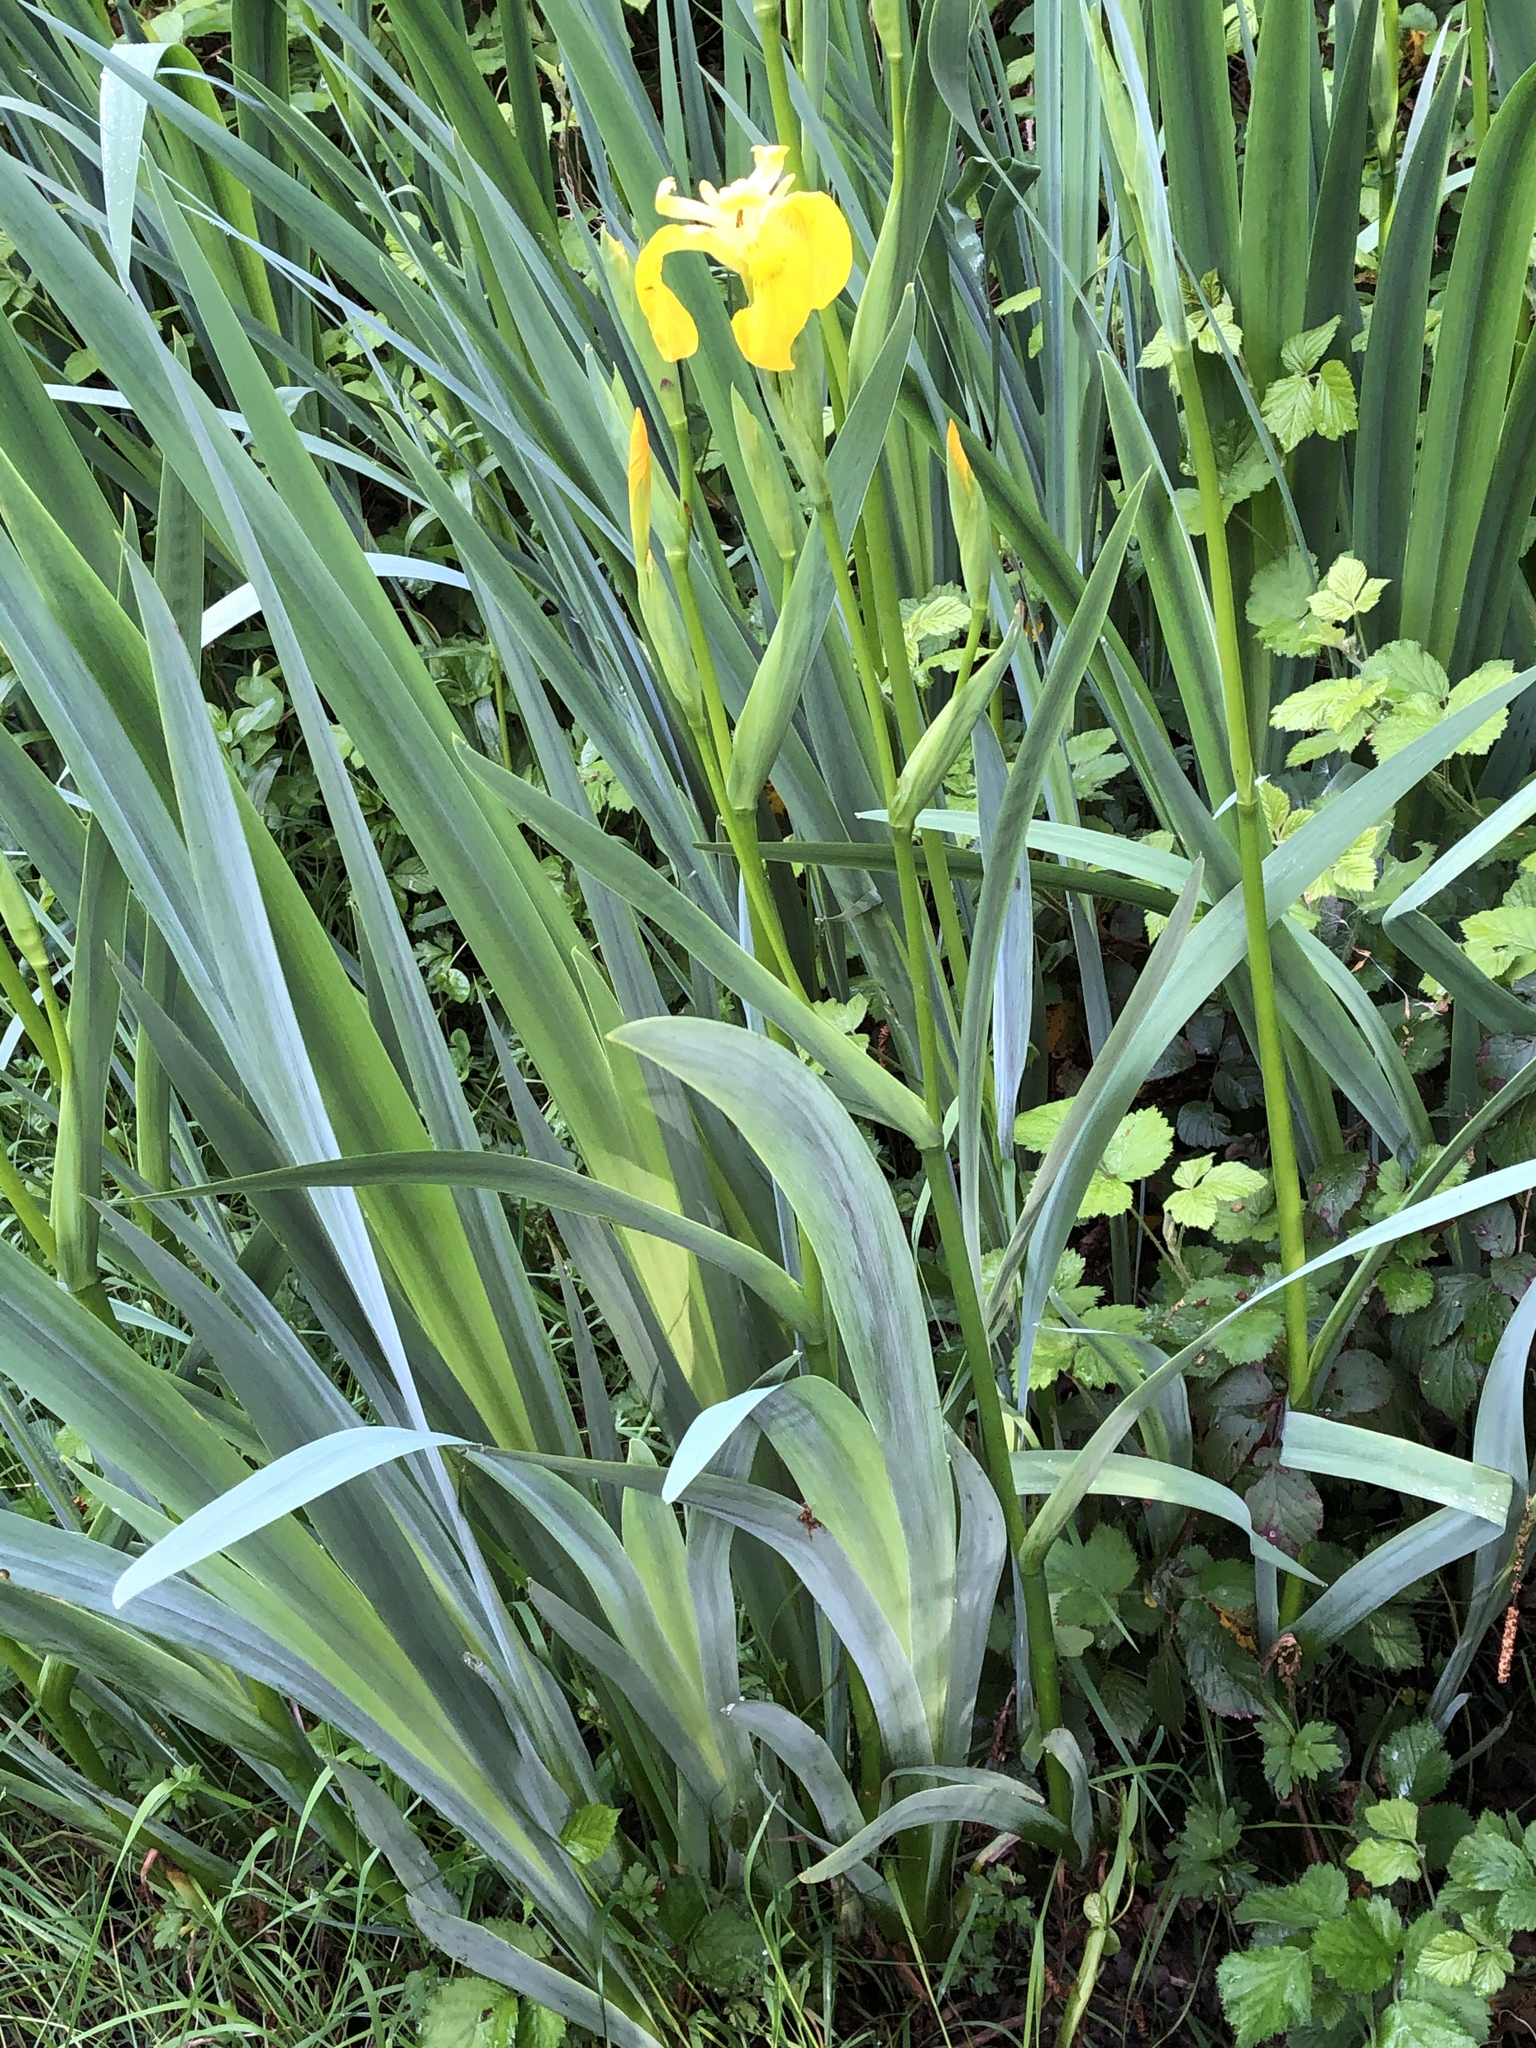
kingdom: Plantae
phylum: Tracheophyta
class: Liliopsida
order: Asparagales
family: Iridaceae
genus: Iris
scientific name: Iris pseudacorus
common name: Yellow flag
